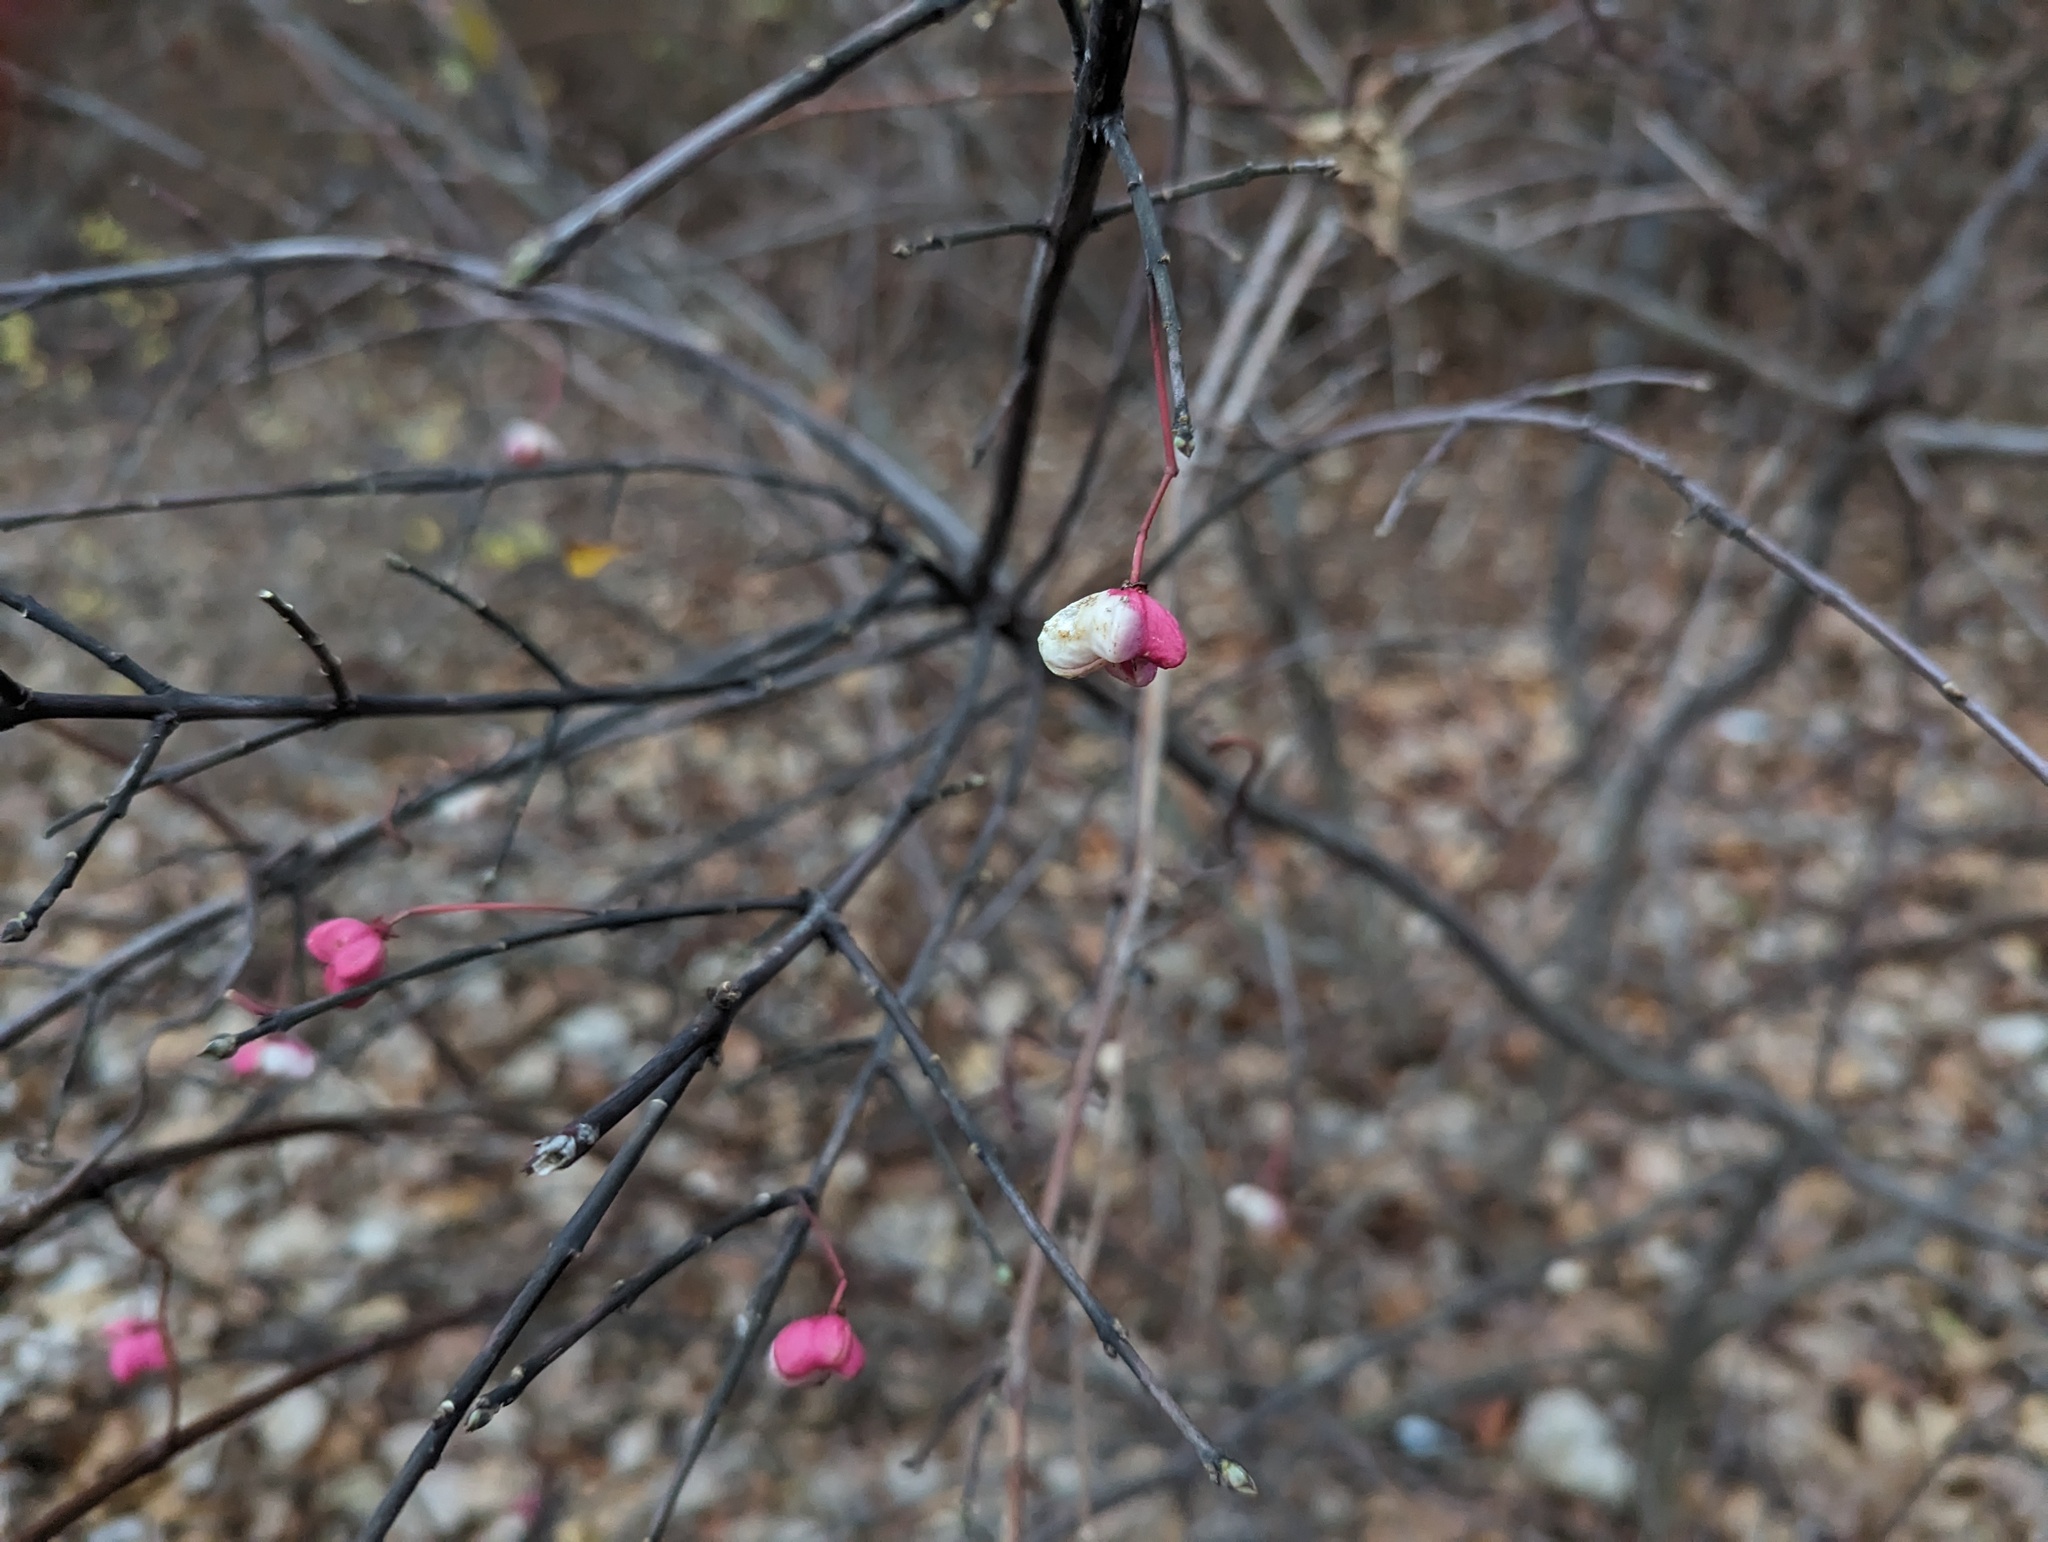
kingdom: Plantae
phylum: Tracheophyta
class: Magnoliopsida
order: Celastrales
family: Celastraceae
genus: Euonymus
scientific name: Euonymus europaeus
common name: Spindle
